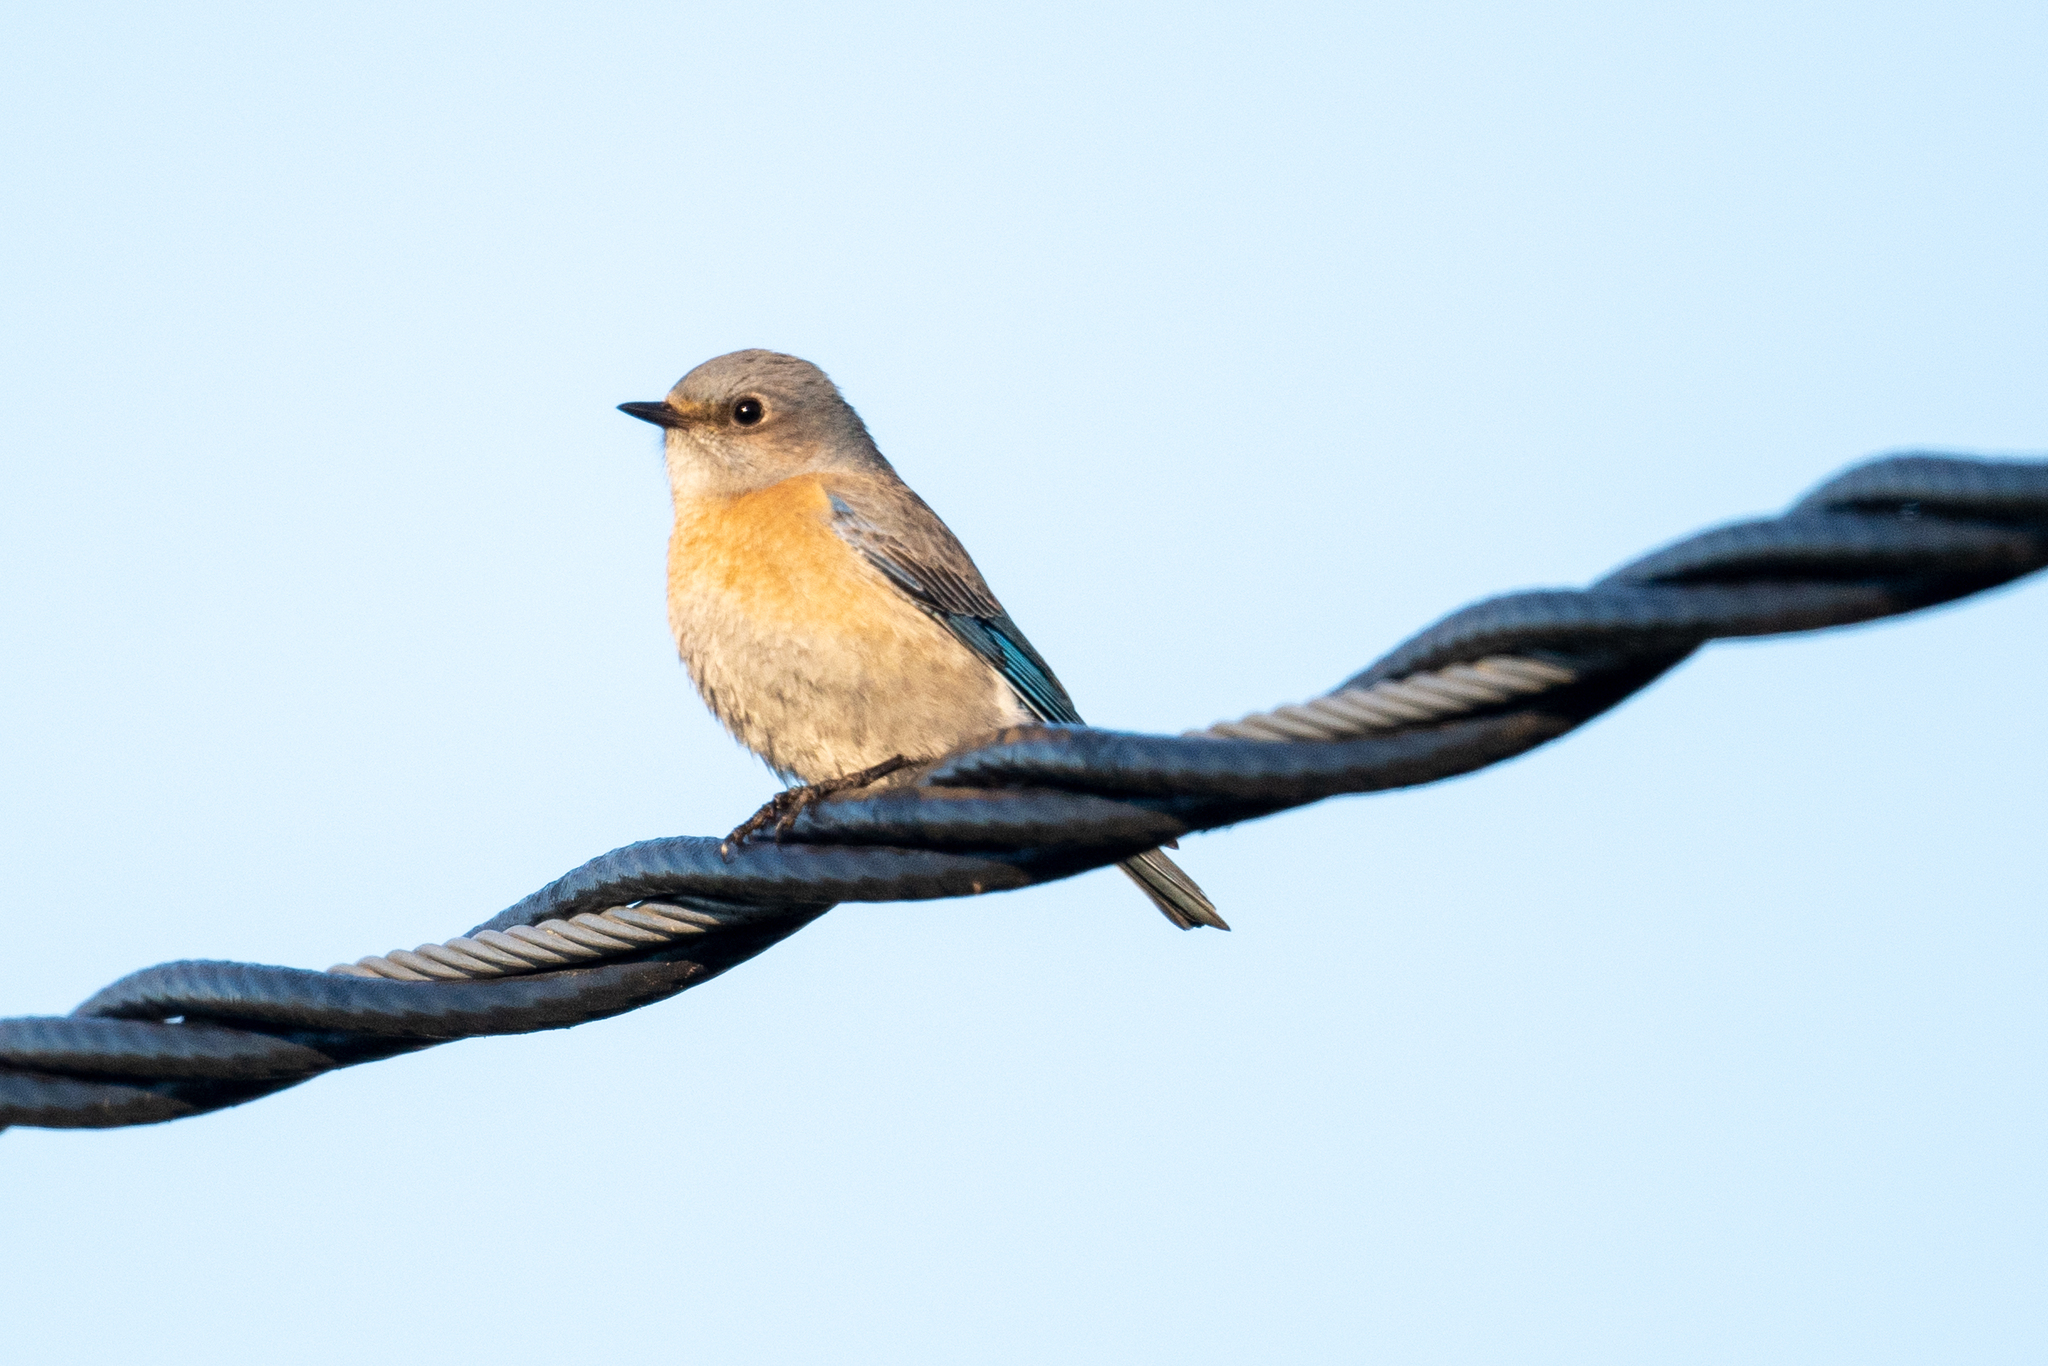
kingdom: Animalia
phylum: Chordata
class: Aves
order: Passeriformes
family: Turdidae
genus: Sialia
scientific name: Sialia mexicana
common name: Western bluebird
